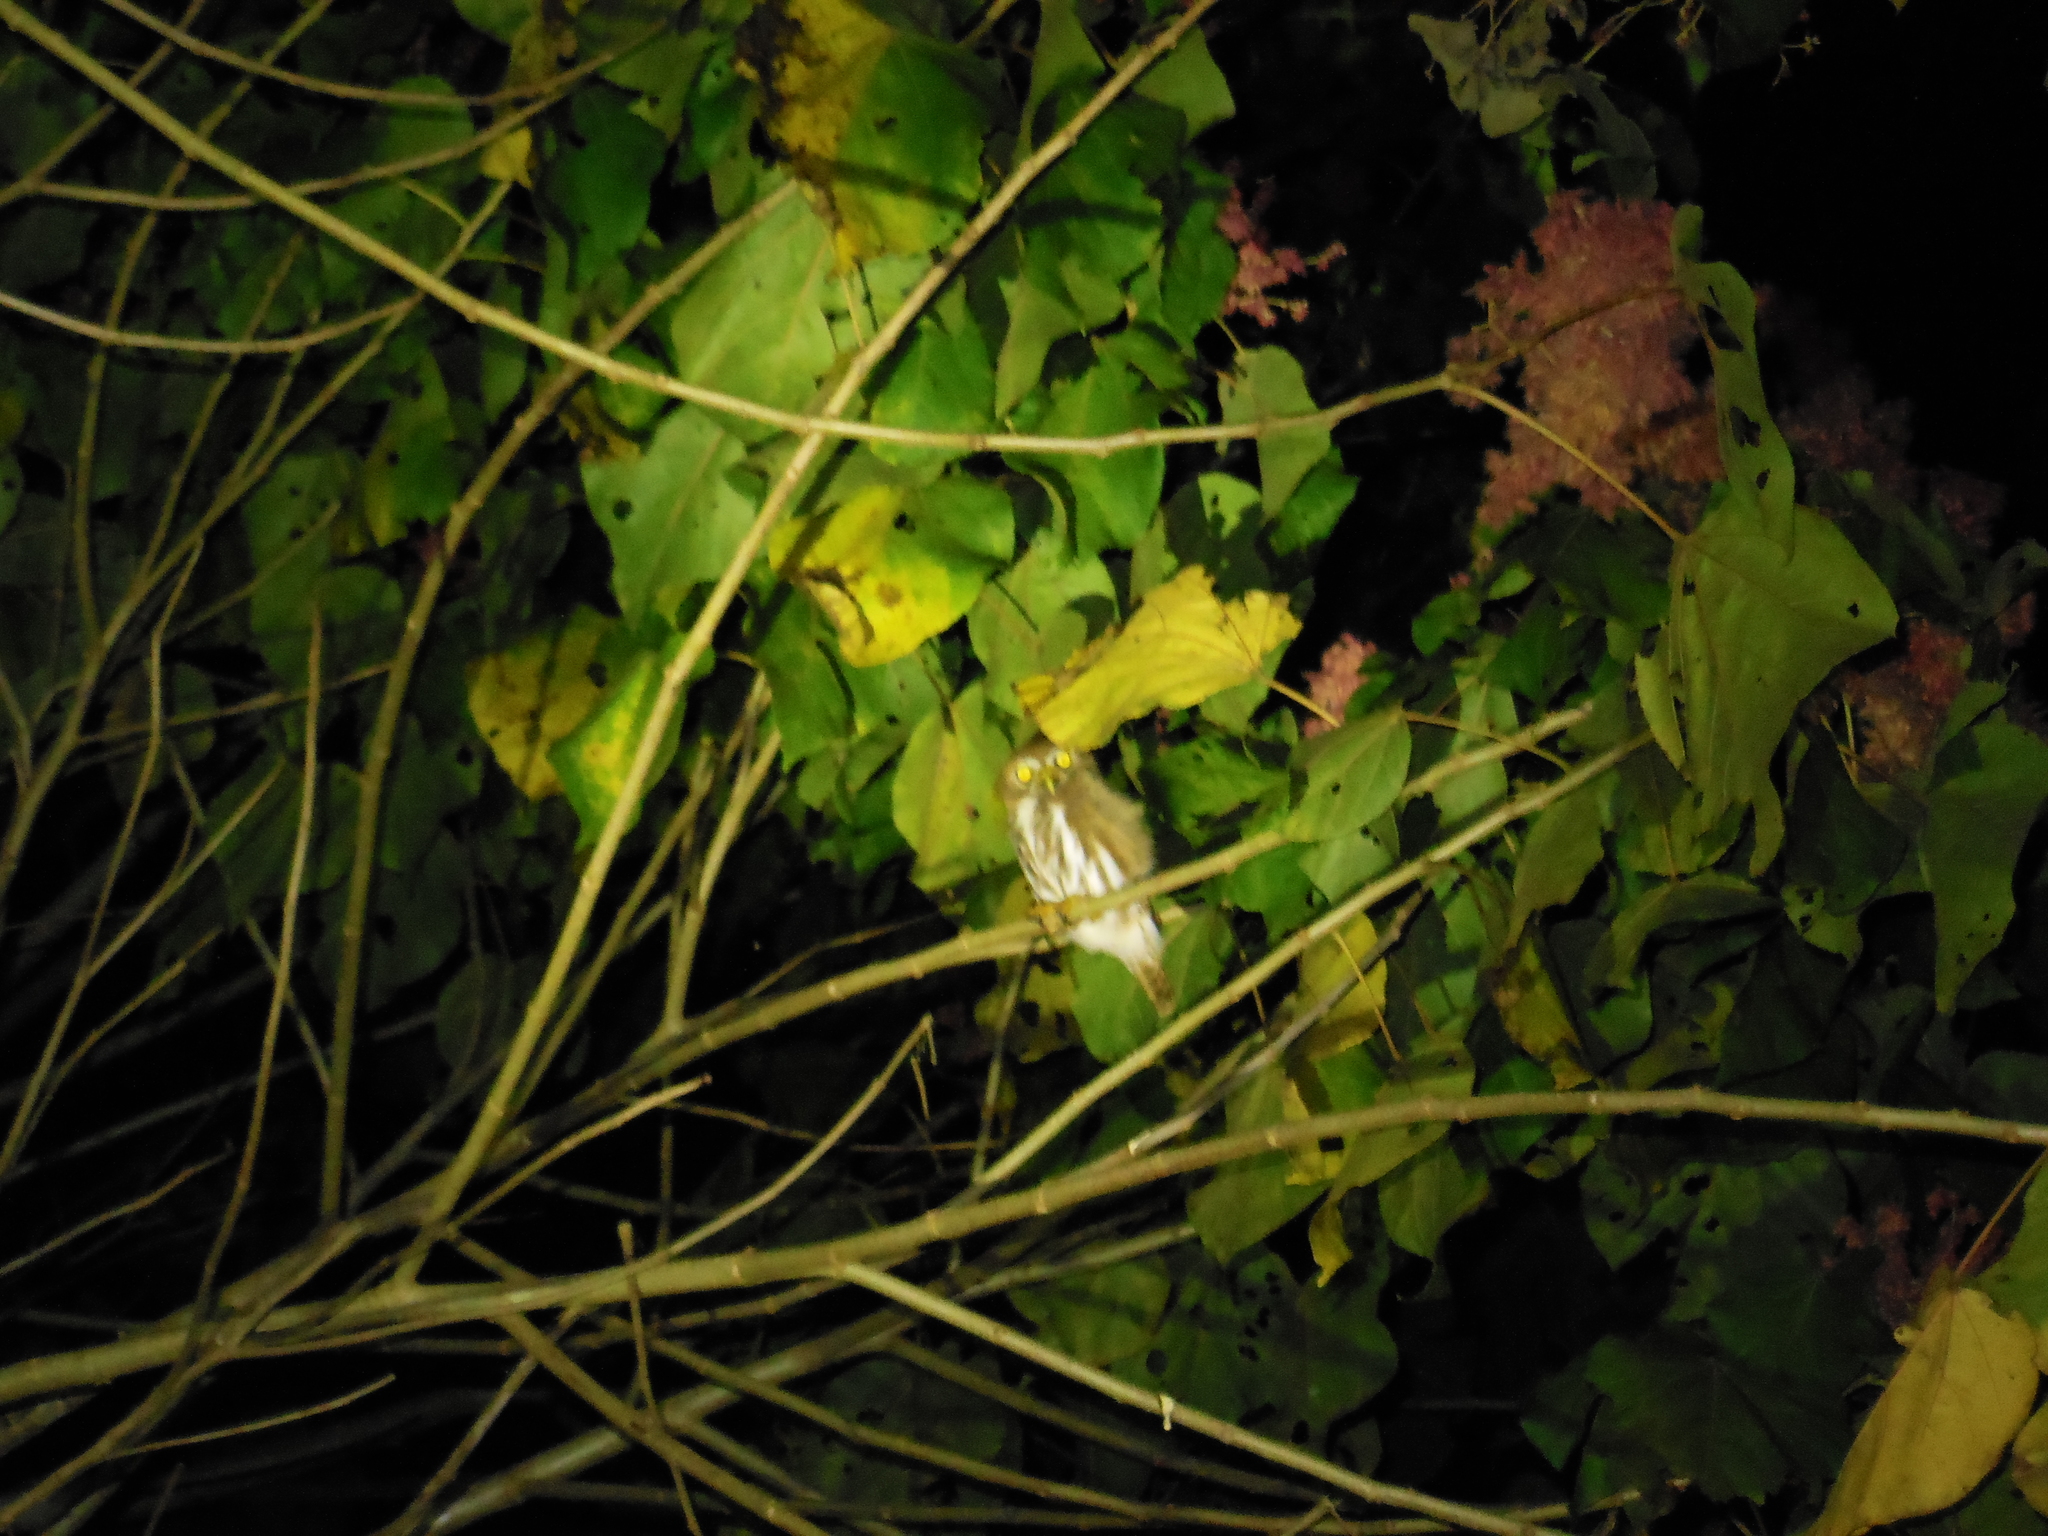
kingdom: Animalia
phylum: Chordata
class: Aves
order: Strigiformes
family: Strigidae
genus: Glaucidium
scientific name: Glaucidium brasilianum
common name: Ferruginous pygmy-owl
